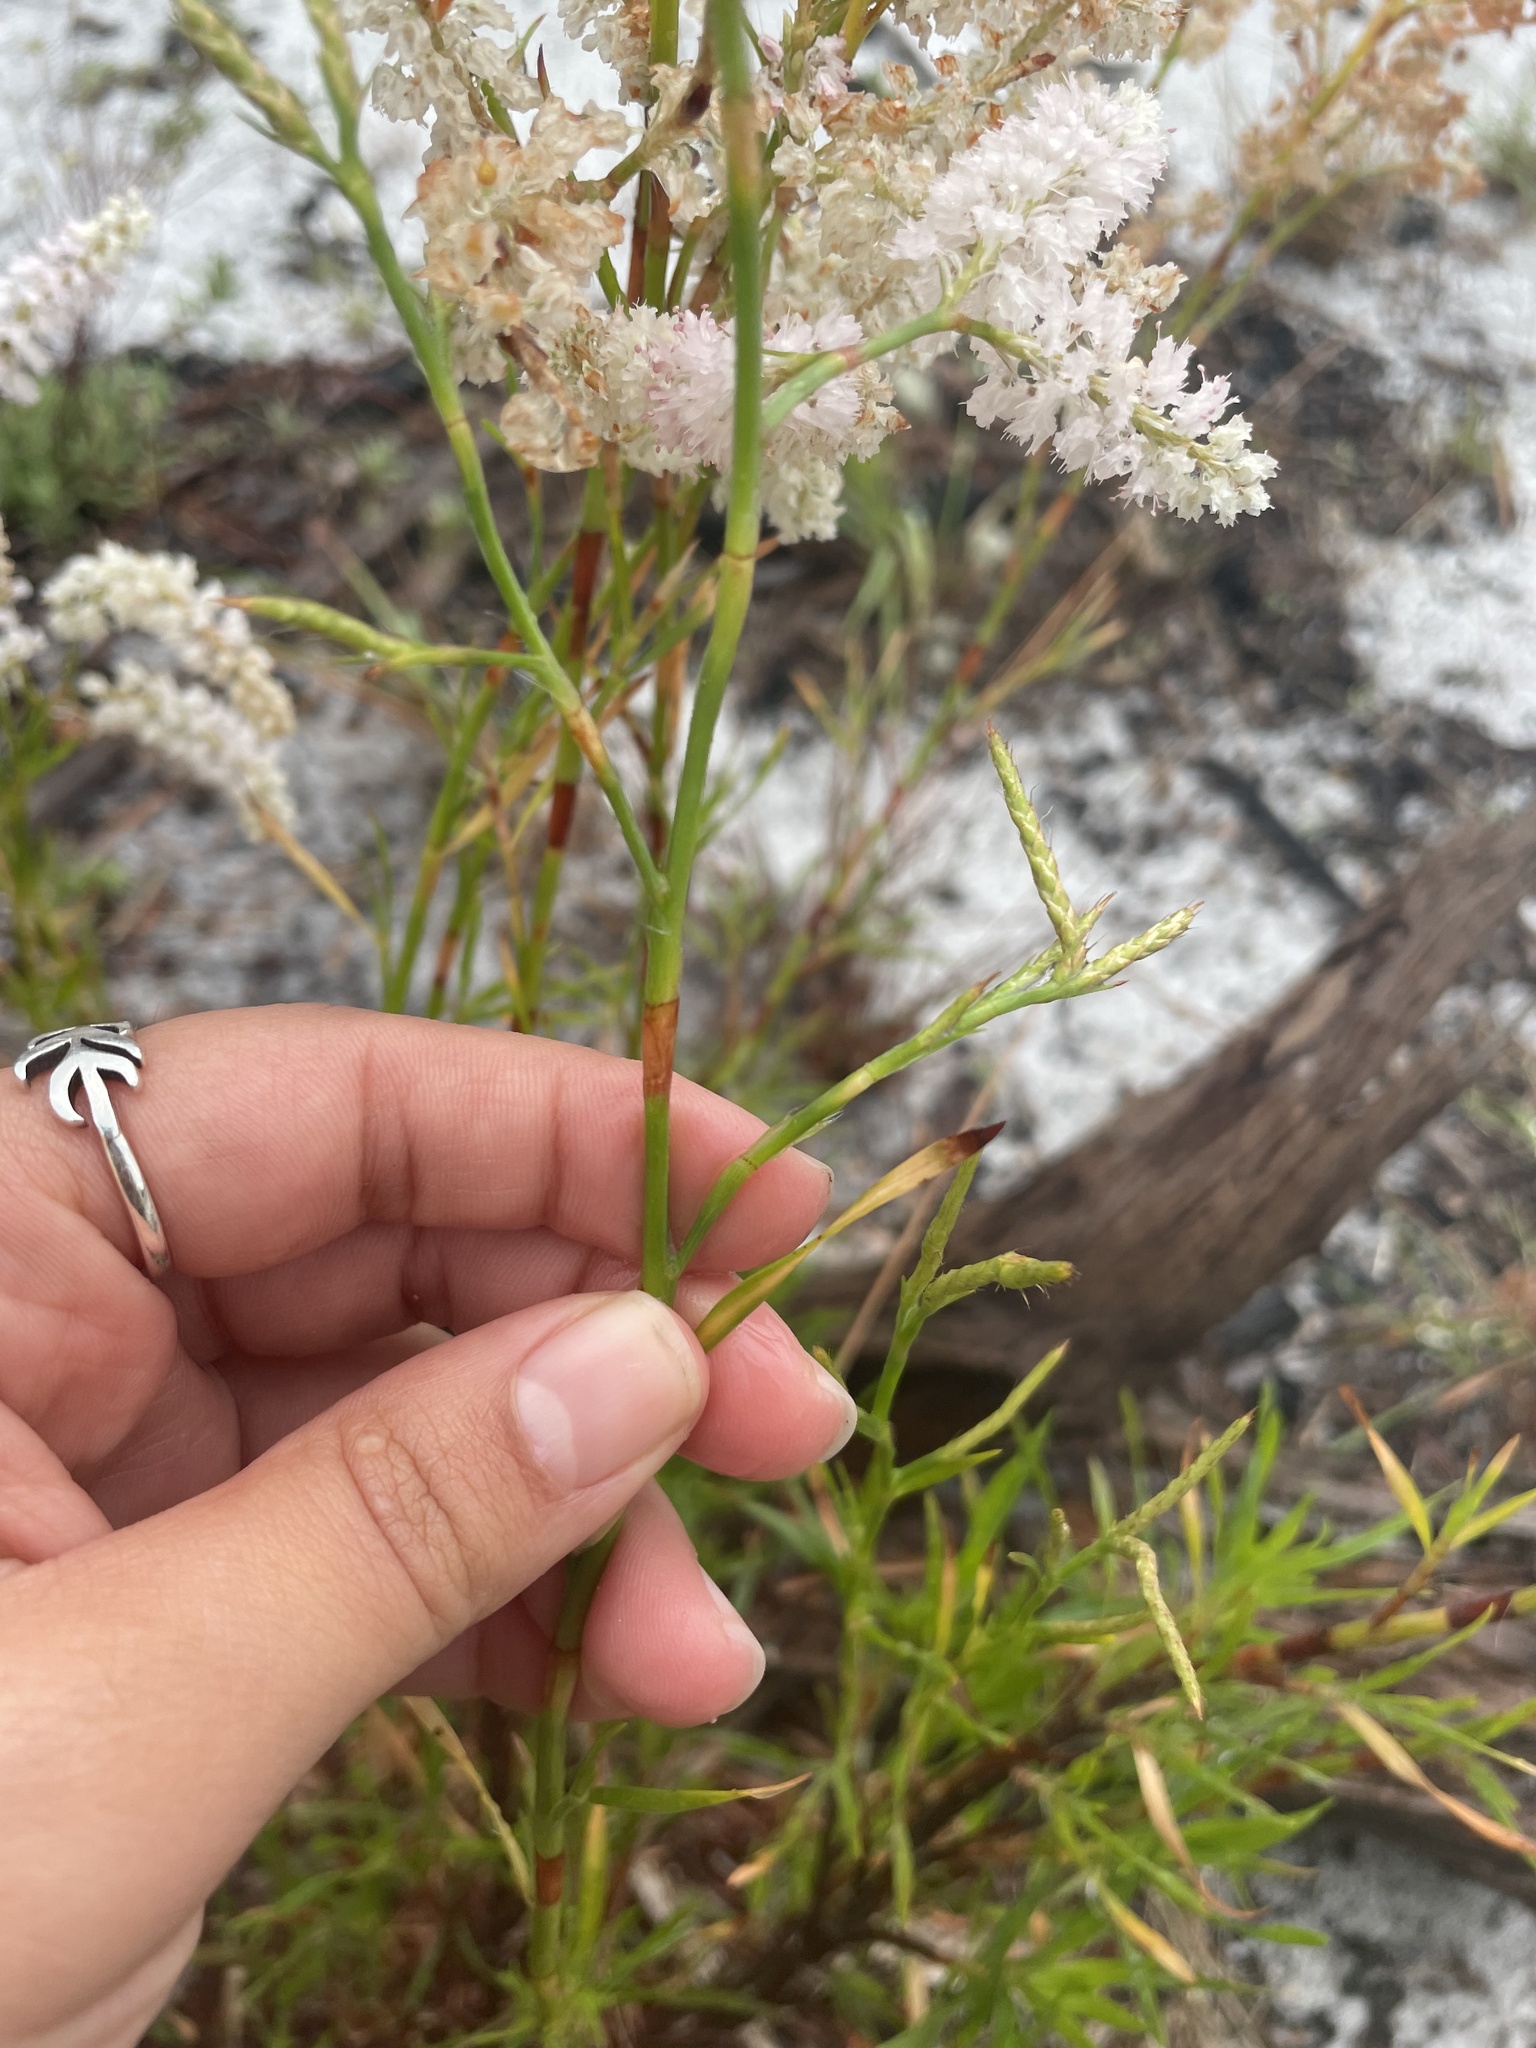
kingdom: Plantae
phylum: Tracheophyta
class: Magnoliopsida
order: Caryophyllales
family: Polygonaceae
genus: Polygonella
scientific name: Polygonella robusta
